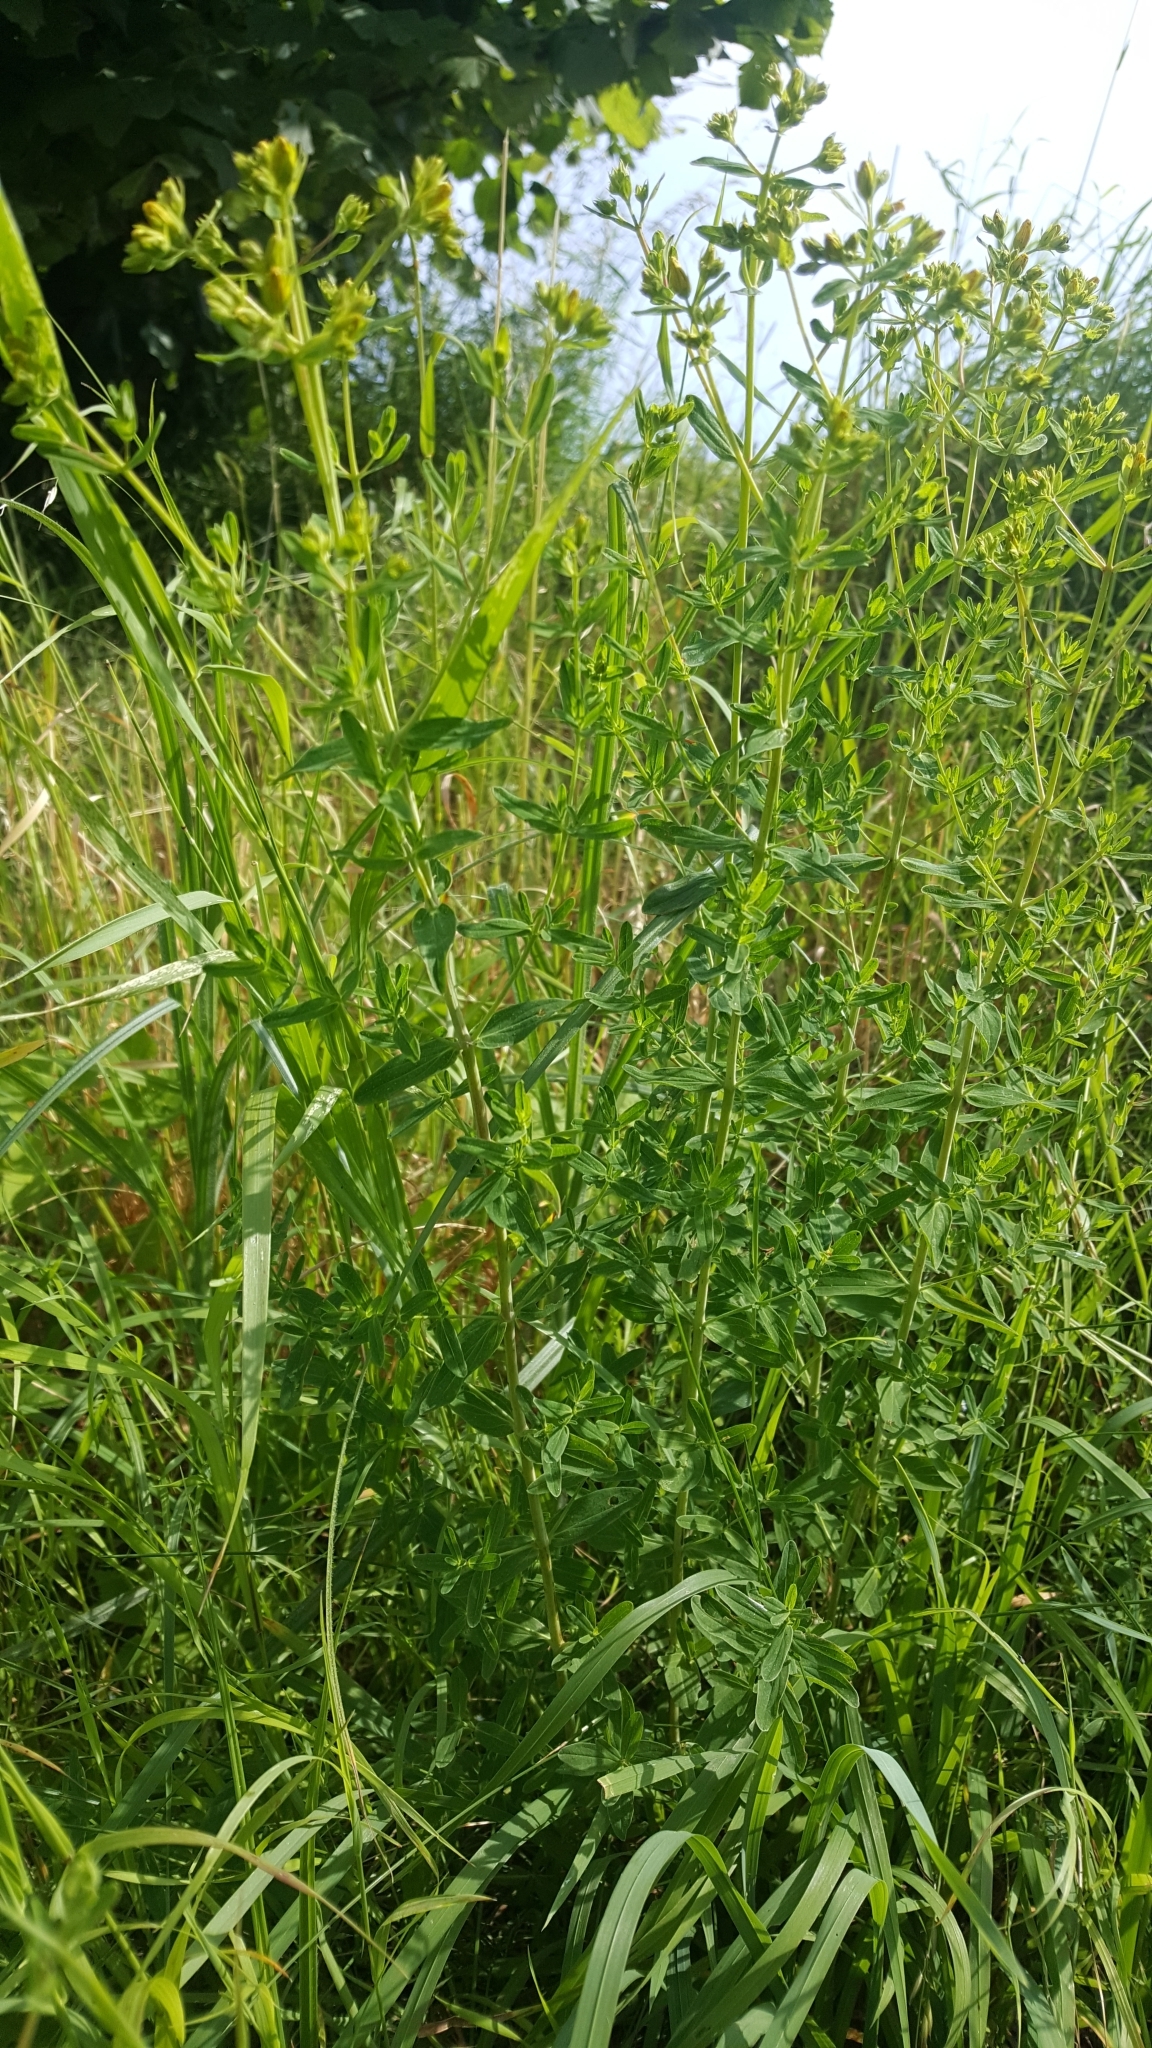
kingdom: Plantae
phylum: Tracheophyta
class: Magnoliopsida
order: Malpighiales
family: Hypericaceae
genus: Hypericum
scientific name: Hypericum perforatum
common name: Common st. johnswort
